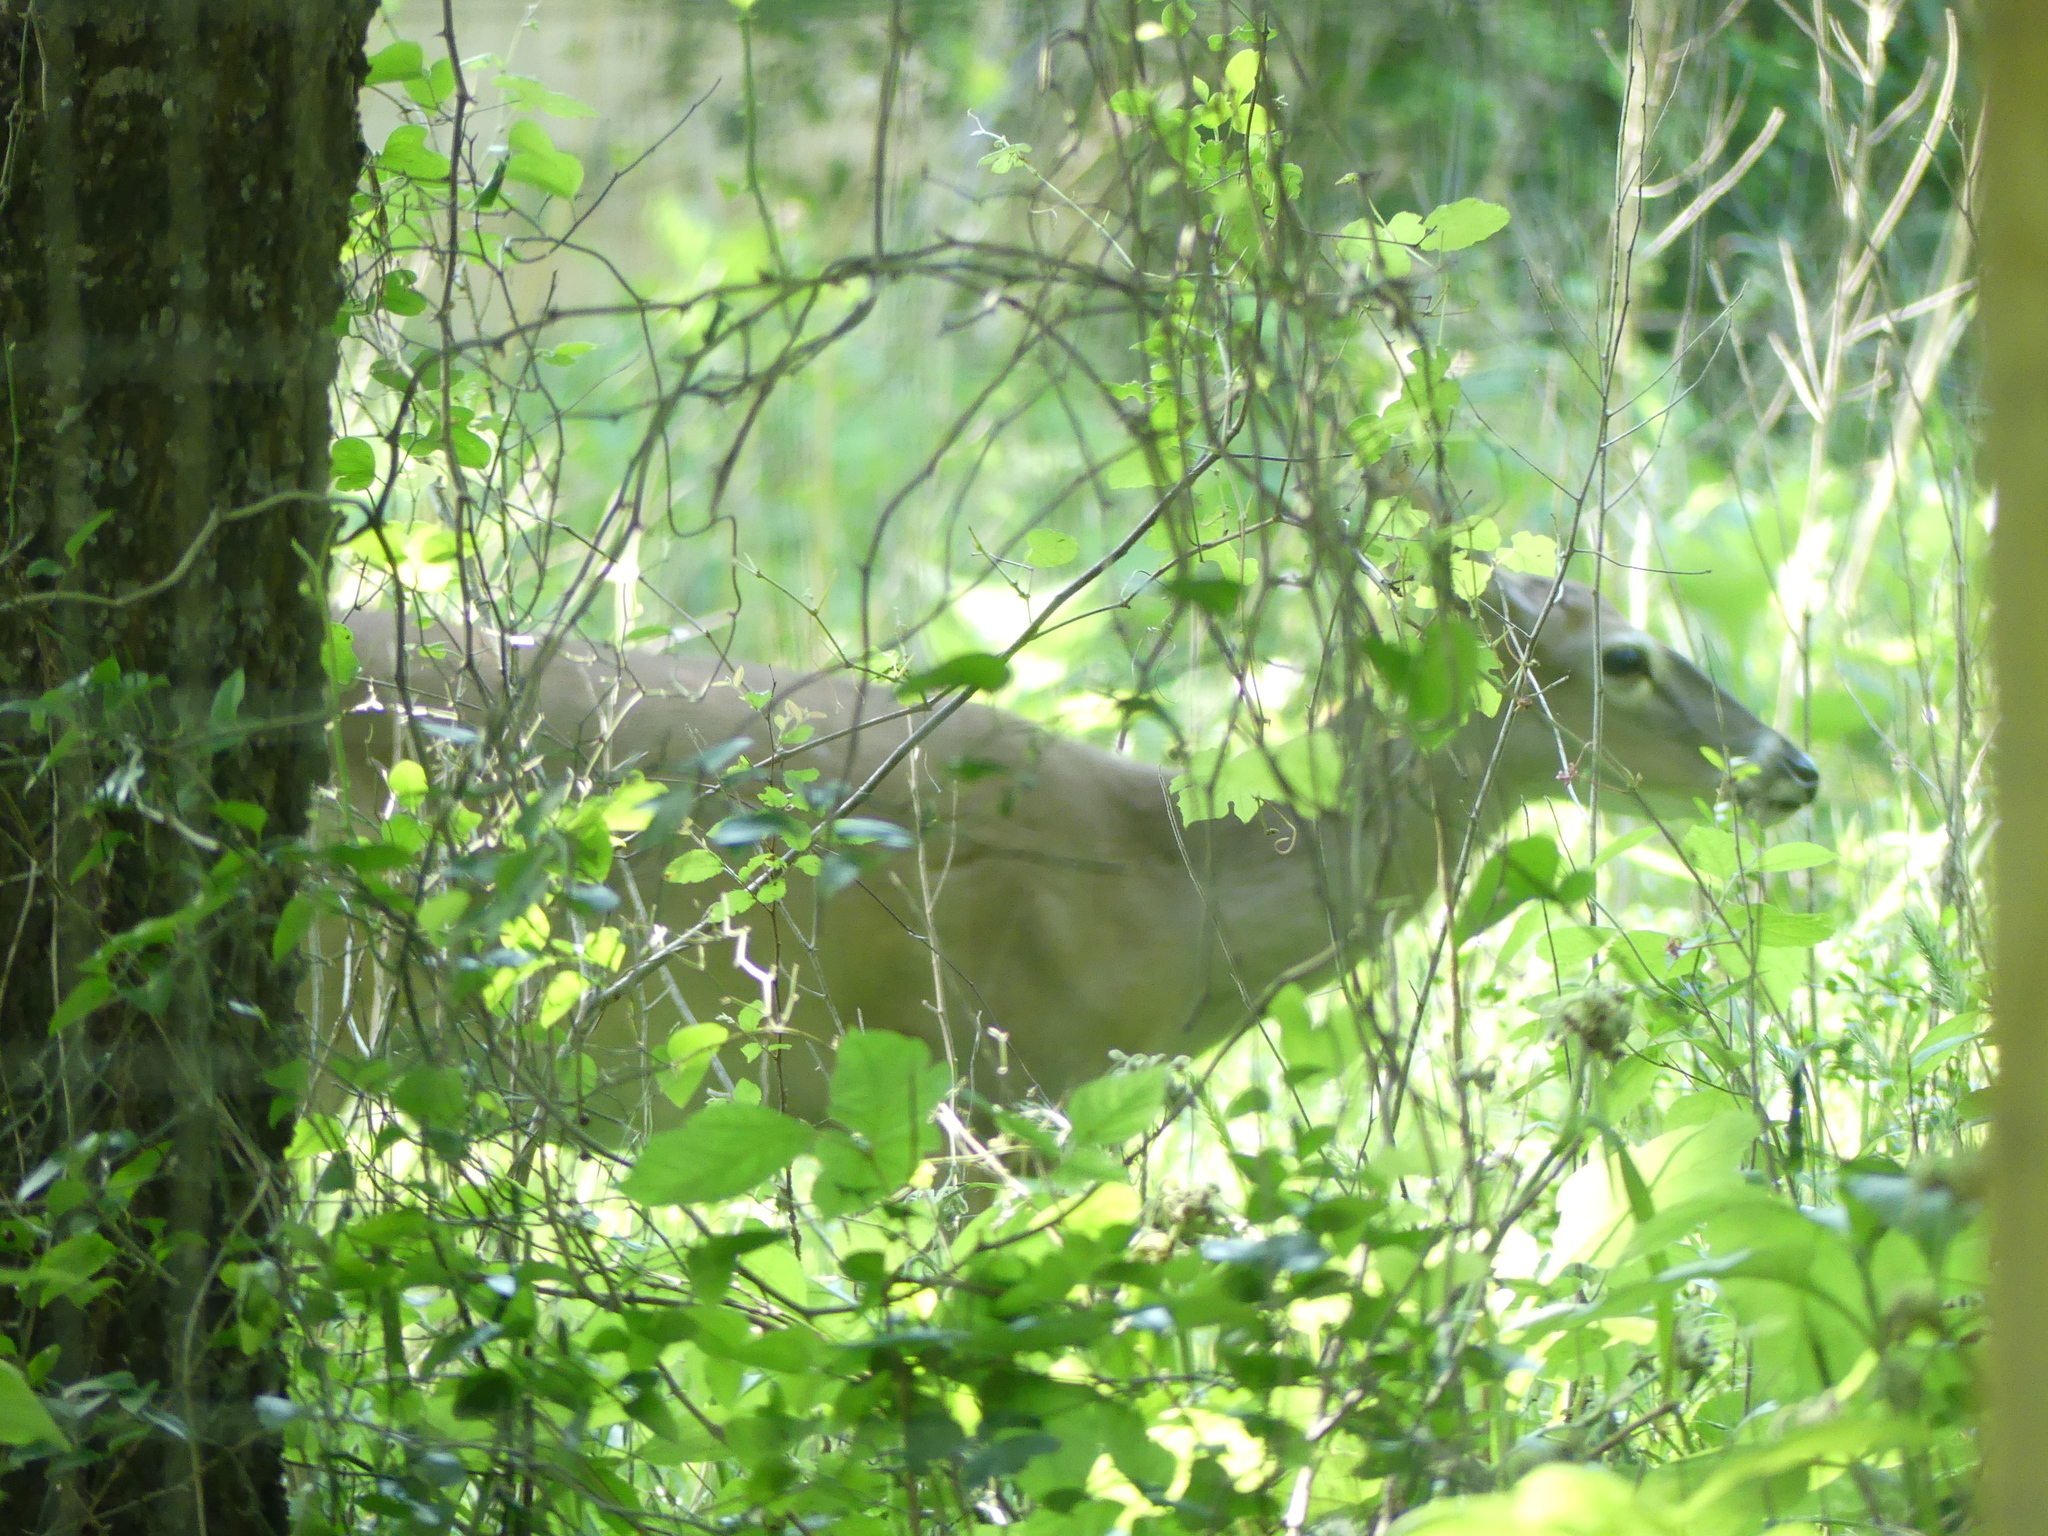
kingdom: Animalia
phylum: Chordata
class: Mammalia
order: Artiodactyla
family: Cervidae
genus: Odocoileus
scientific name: Odocoileus virginianus
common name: White-tailed deer
